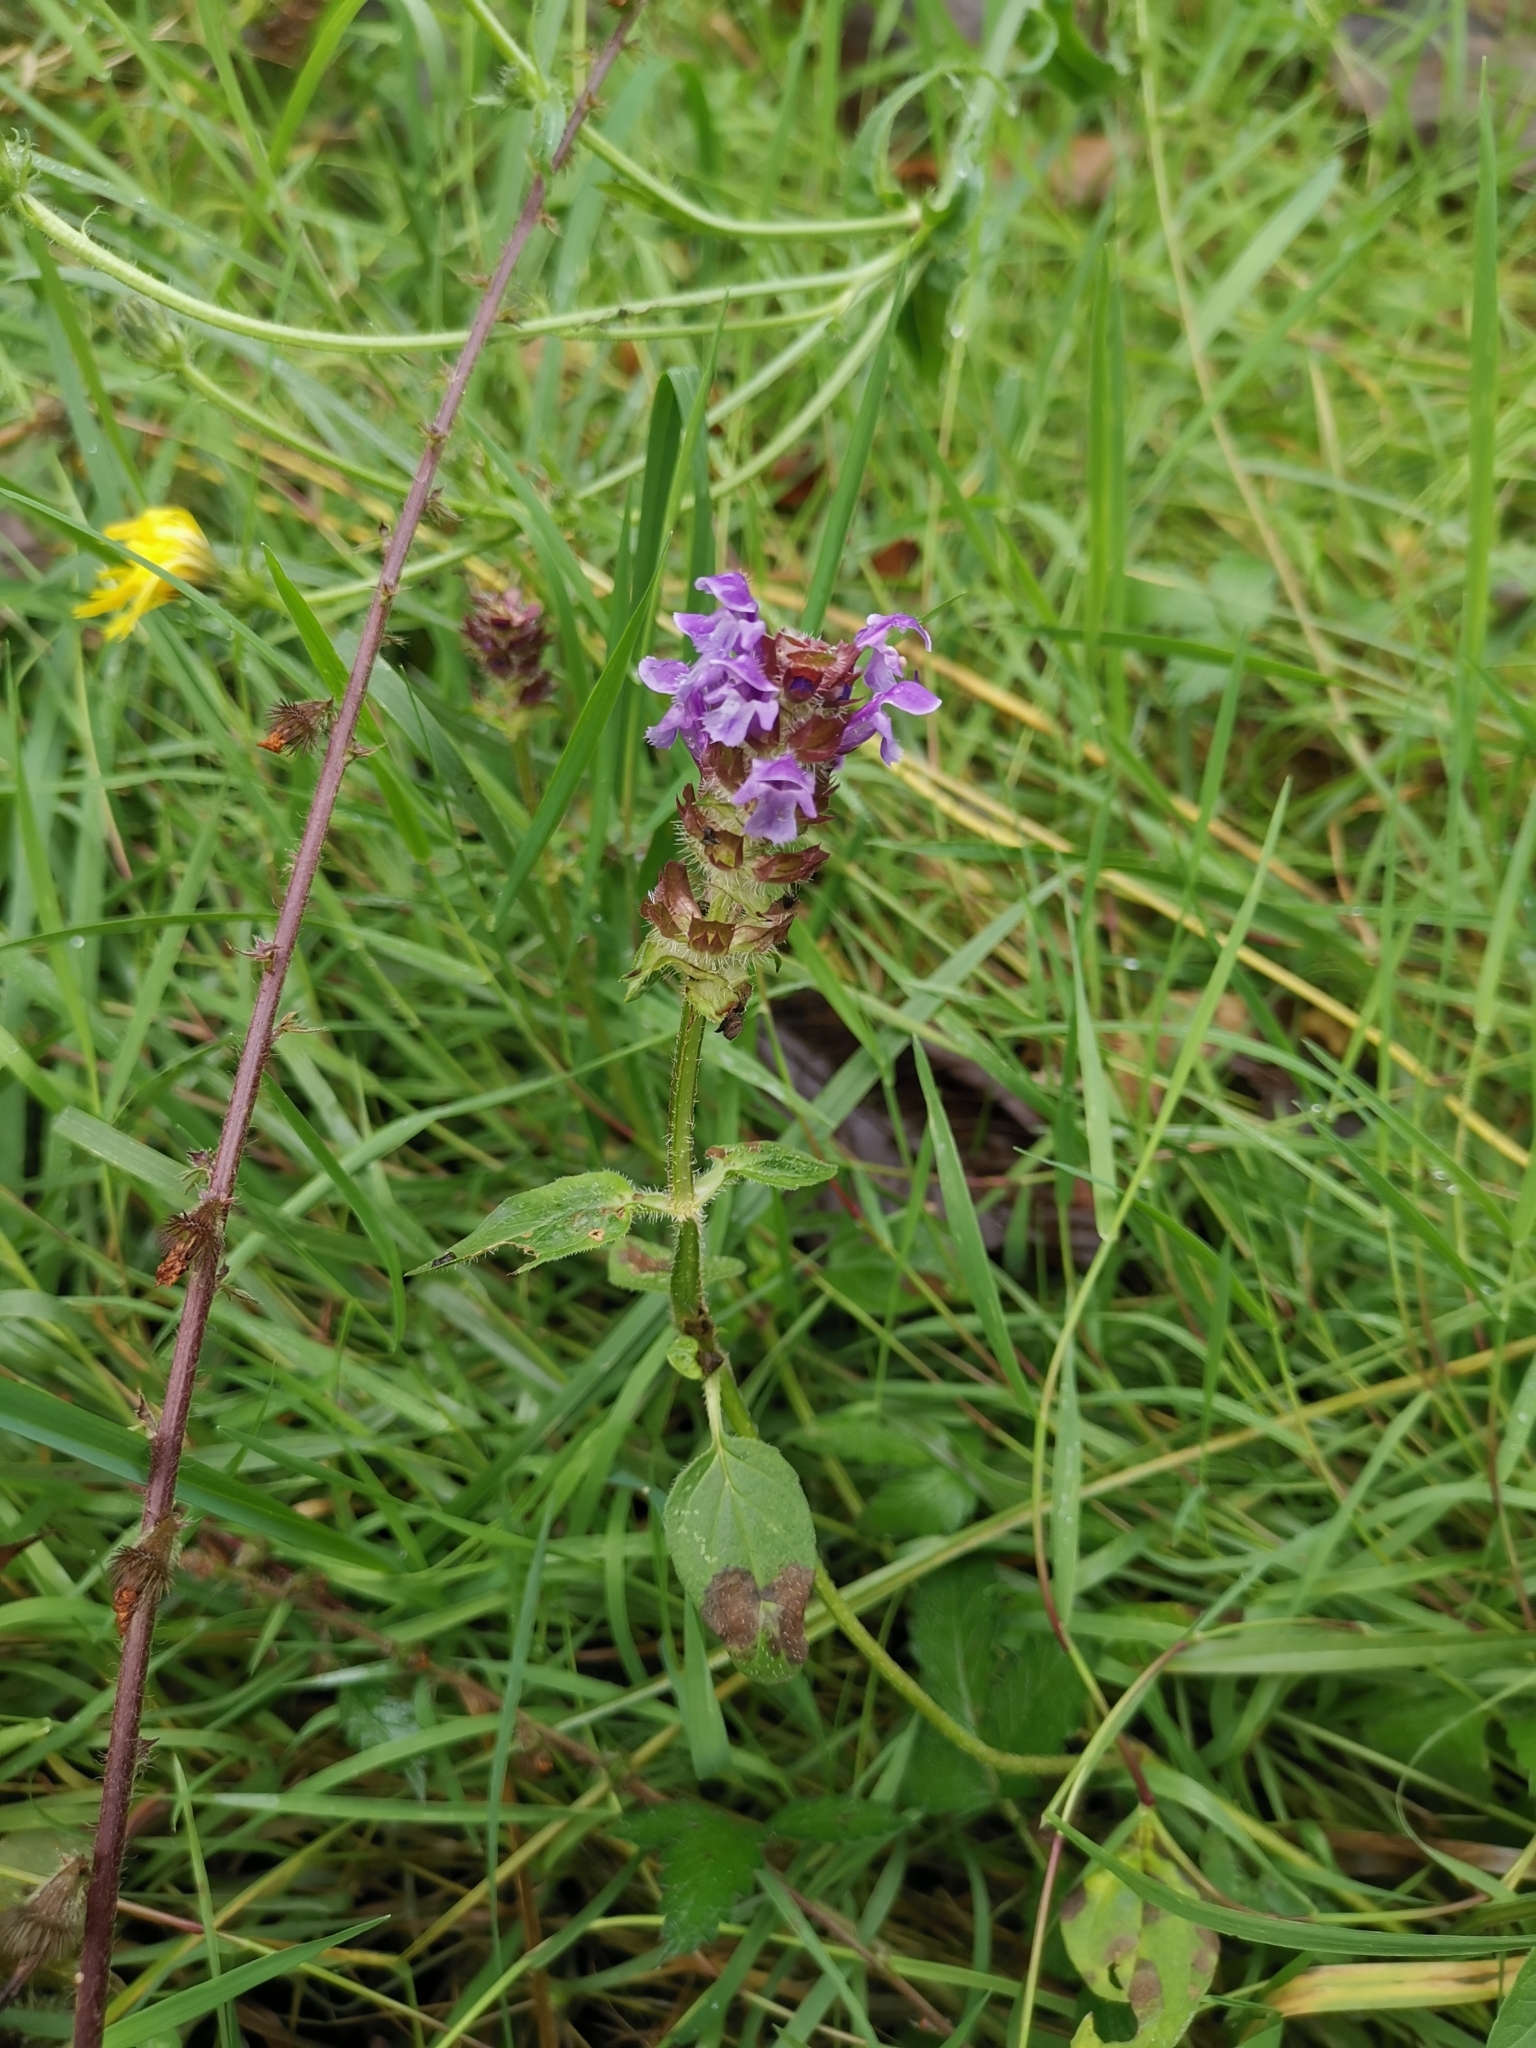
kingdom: Plantae
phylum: Tracheophyta
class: Magnoliopsida
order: Lamiales
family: Lamiaceae
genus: Prunella
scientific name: Prunella vulgaris
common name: Heal-all
